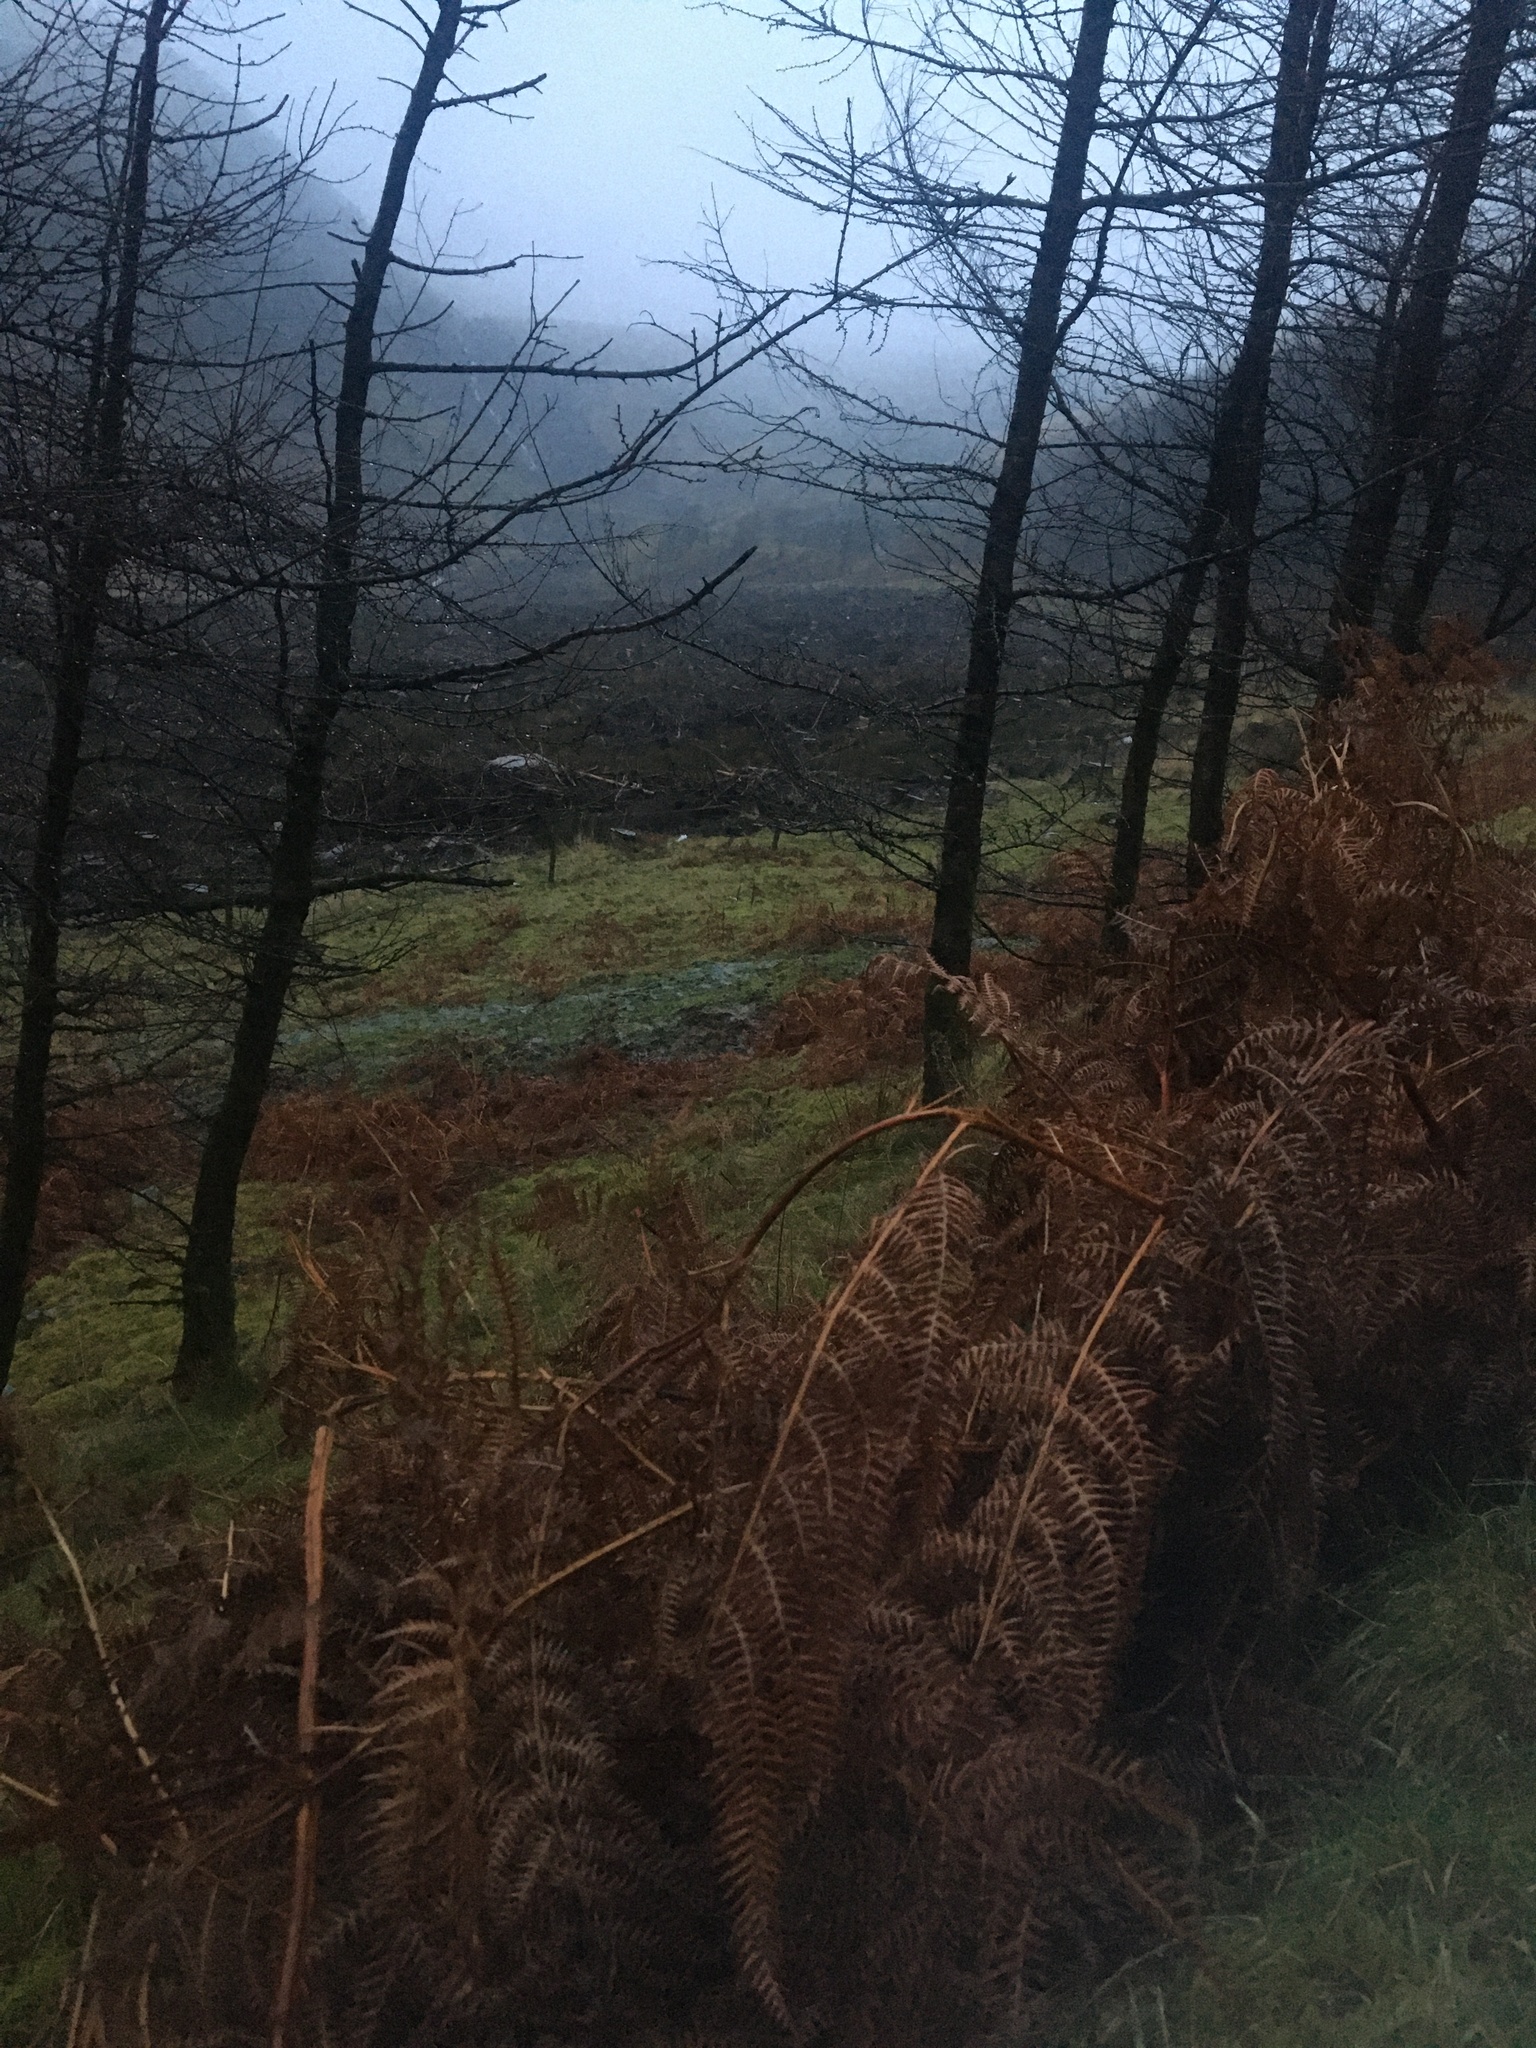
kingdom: Plantae
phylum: Tracheophyta
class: Polypodiopsida
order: Polypodiales
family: Dennstaedtiaceae
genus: Pteridium
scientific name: Pteridium aquilinum
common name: Bracken
